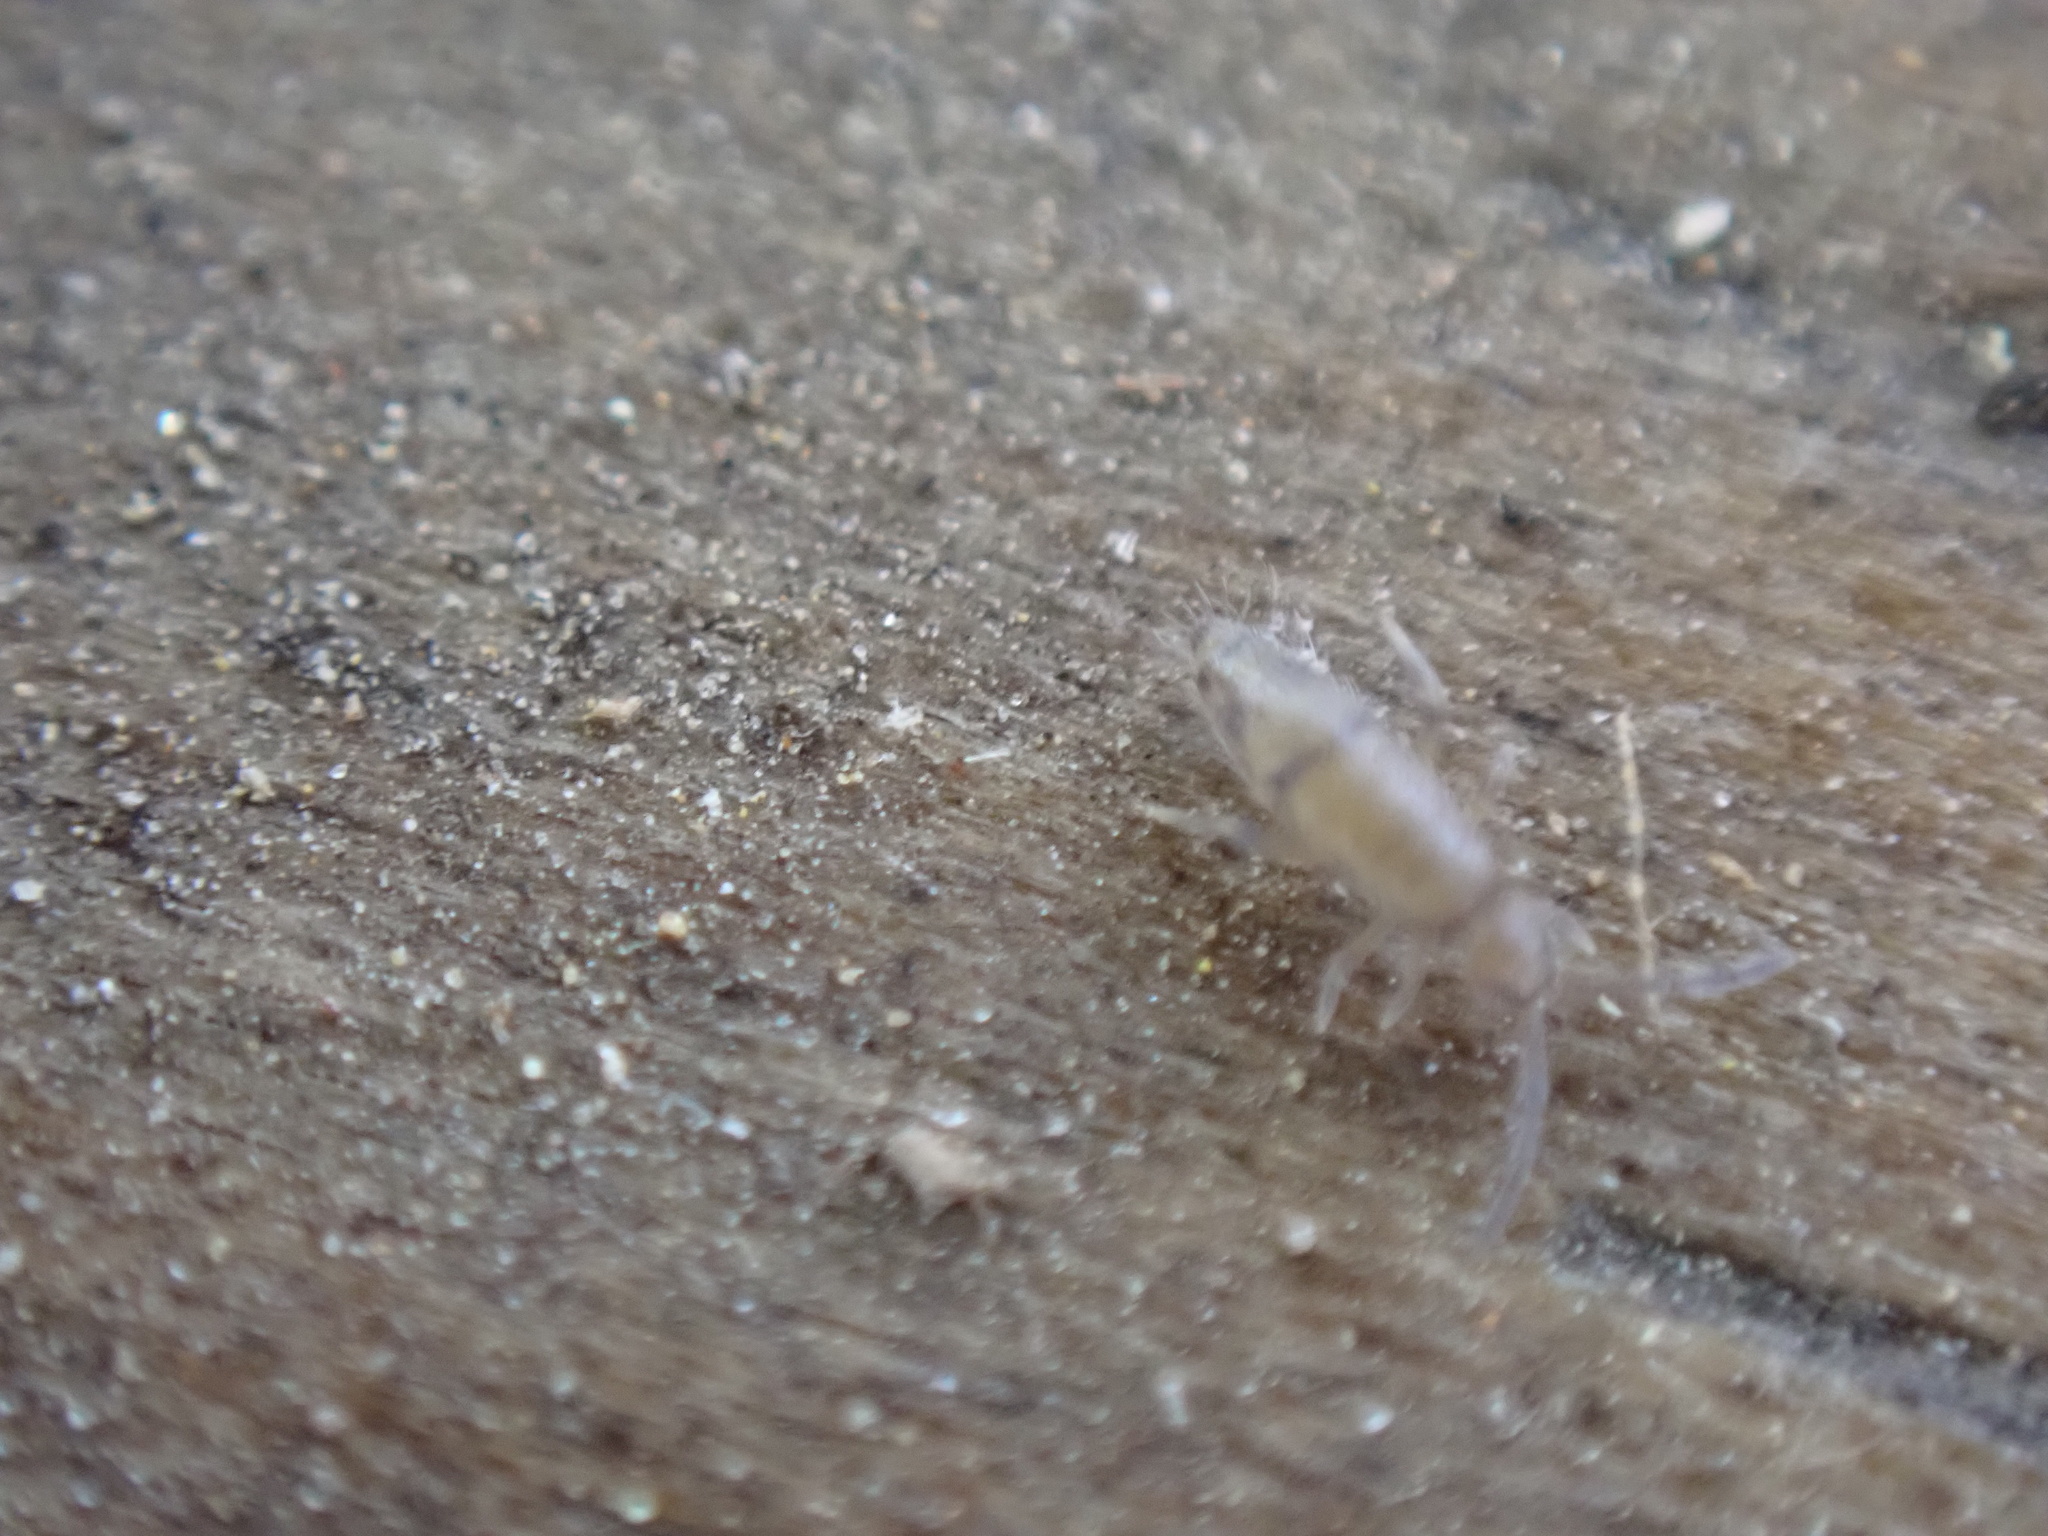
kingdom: Animalia
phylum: Arthropoda
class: Collembola
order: Entomobryomorpha
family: Entomobryidae
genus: Willowsia
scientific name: Willowsia nigromaculata
